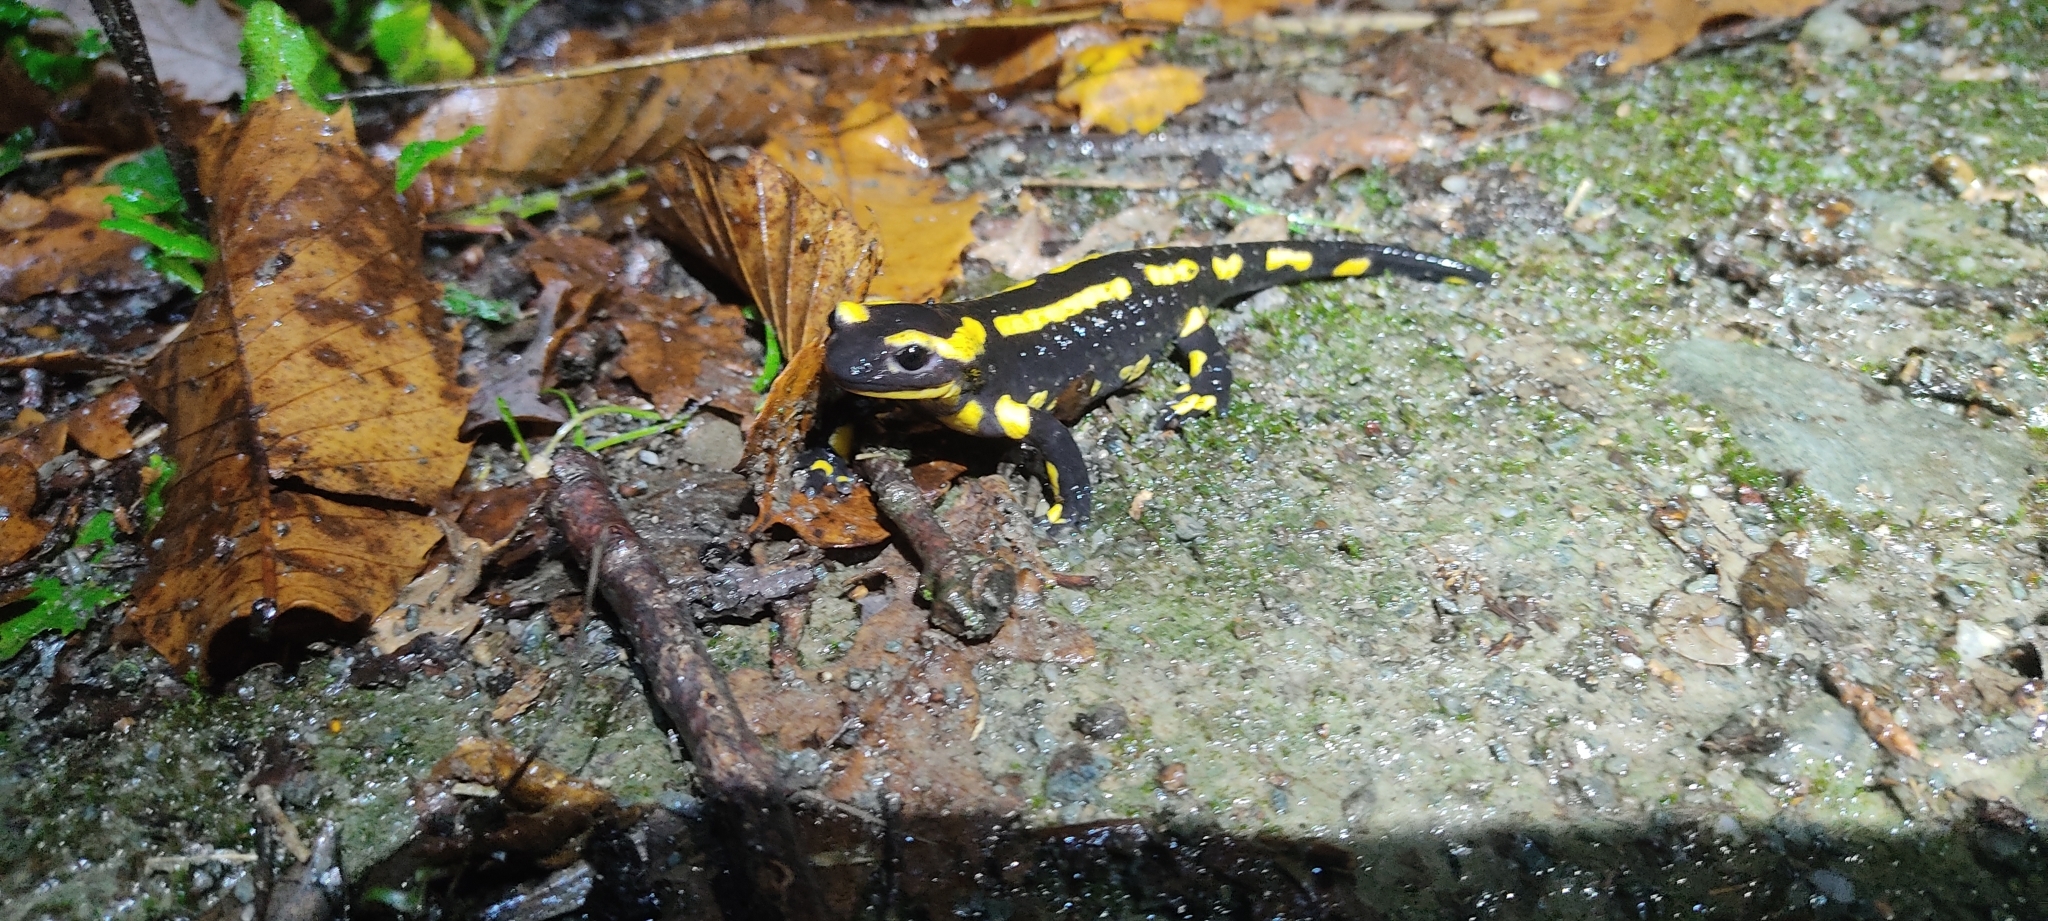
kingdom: Animalia
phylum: Chordata
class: Amphibia
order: Caudata
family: Salamandridae
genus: Salamandra
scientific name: Salamandra salamandra
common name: Fire salamander
